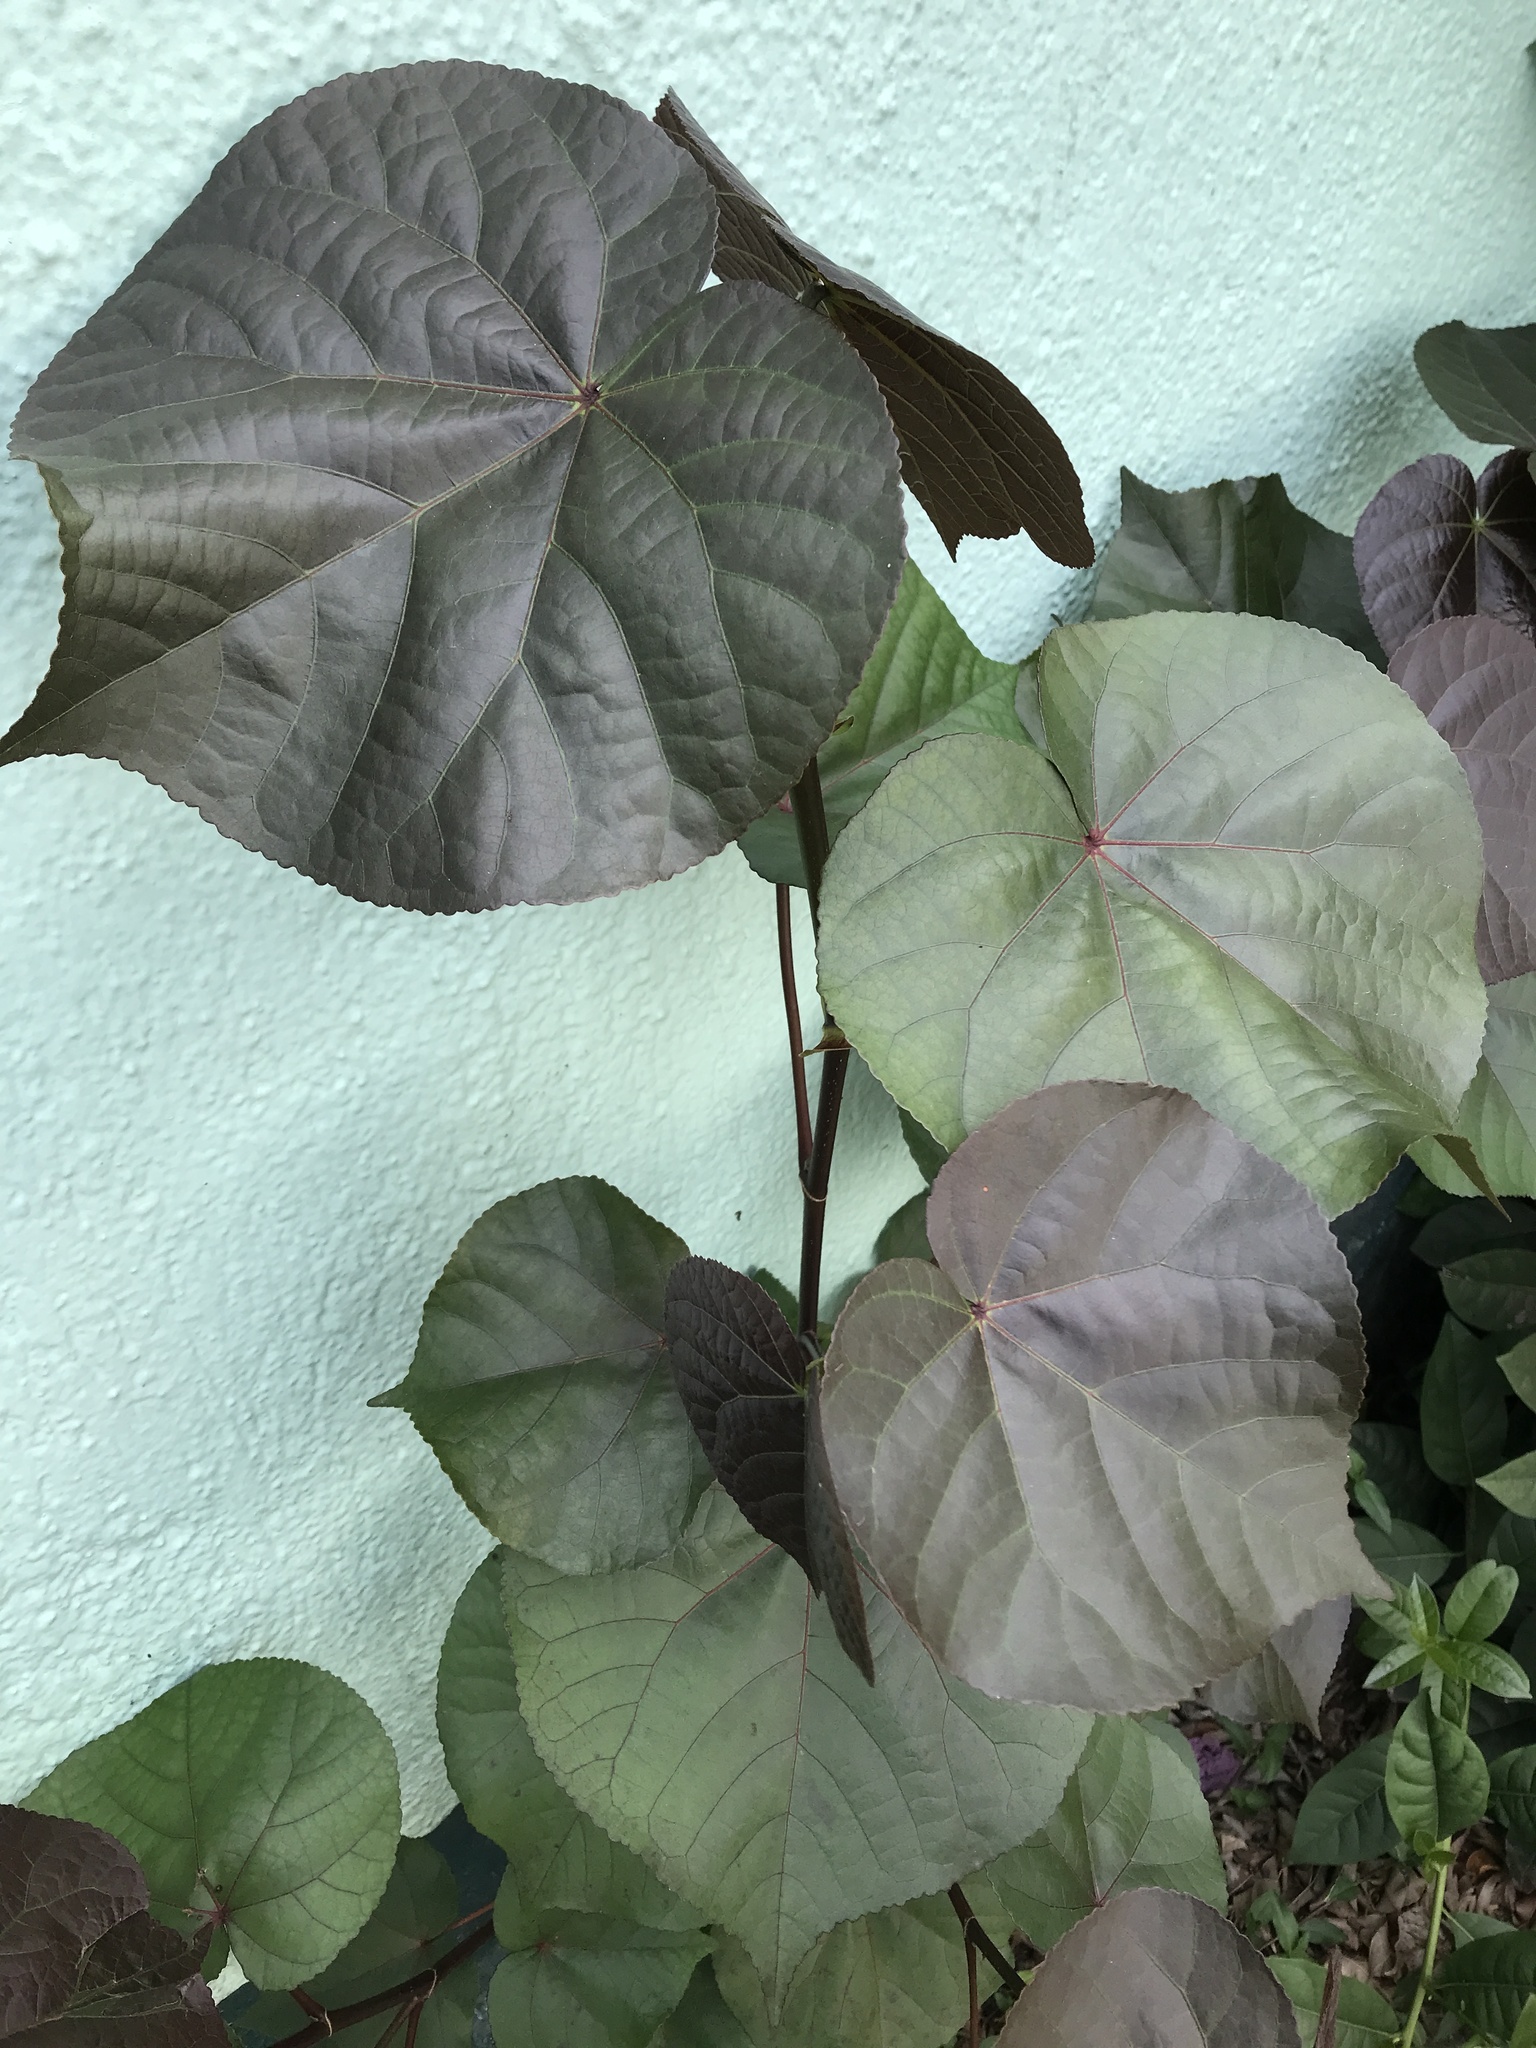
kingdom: Plantae
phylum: Tracheophyta
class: Magnoliopsida
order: Malvales
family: Malvaceae
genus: Talipariti
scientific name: Talipariti tiliaceum
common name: Sea hibiscus
